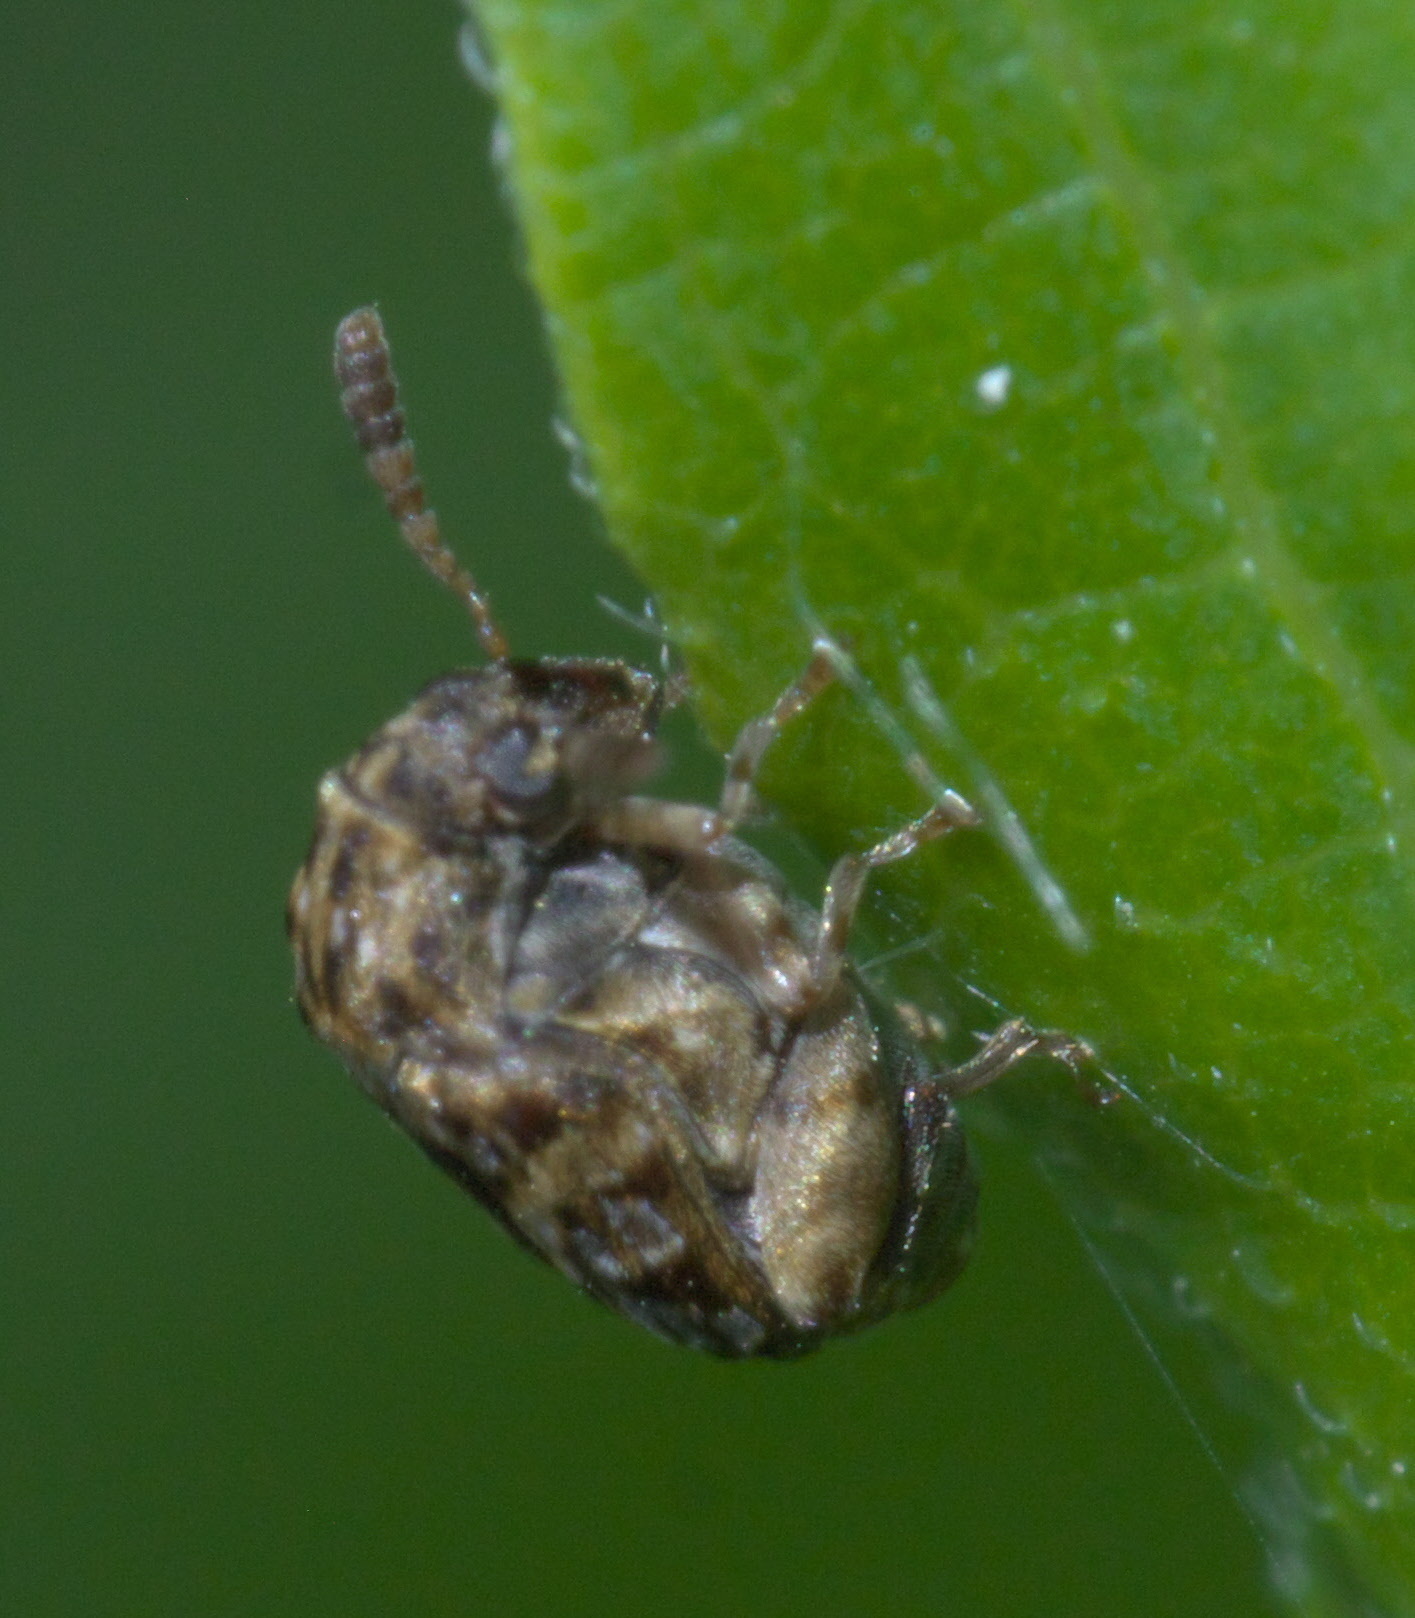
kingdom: Animalia
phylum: Arthropoda
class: Insecta
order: Coleoptera
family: Chrysomelidae
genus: Gibbobruchus
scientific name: Gibbobruchus mimus
